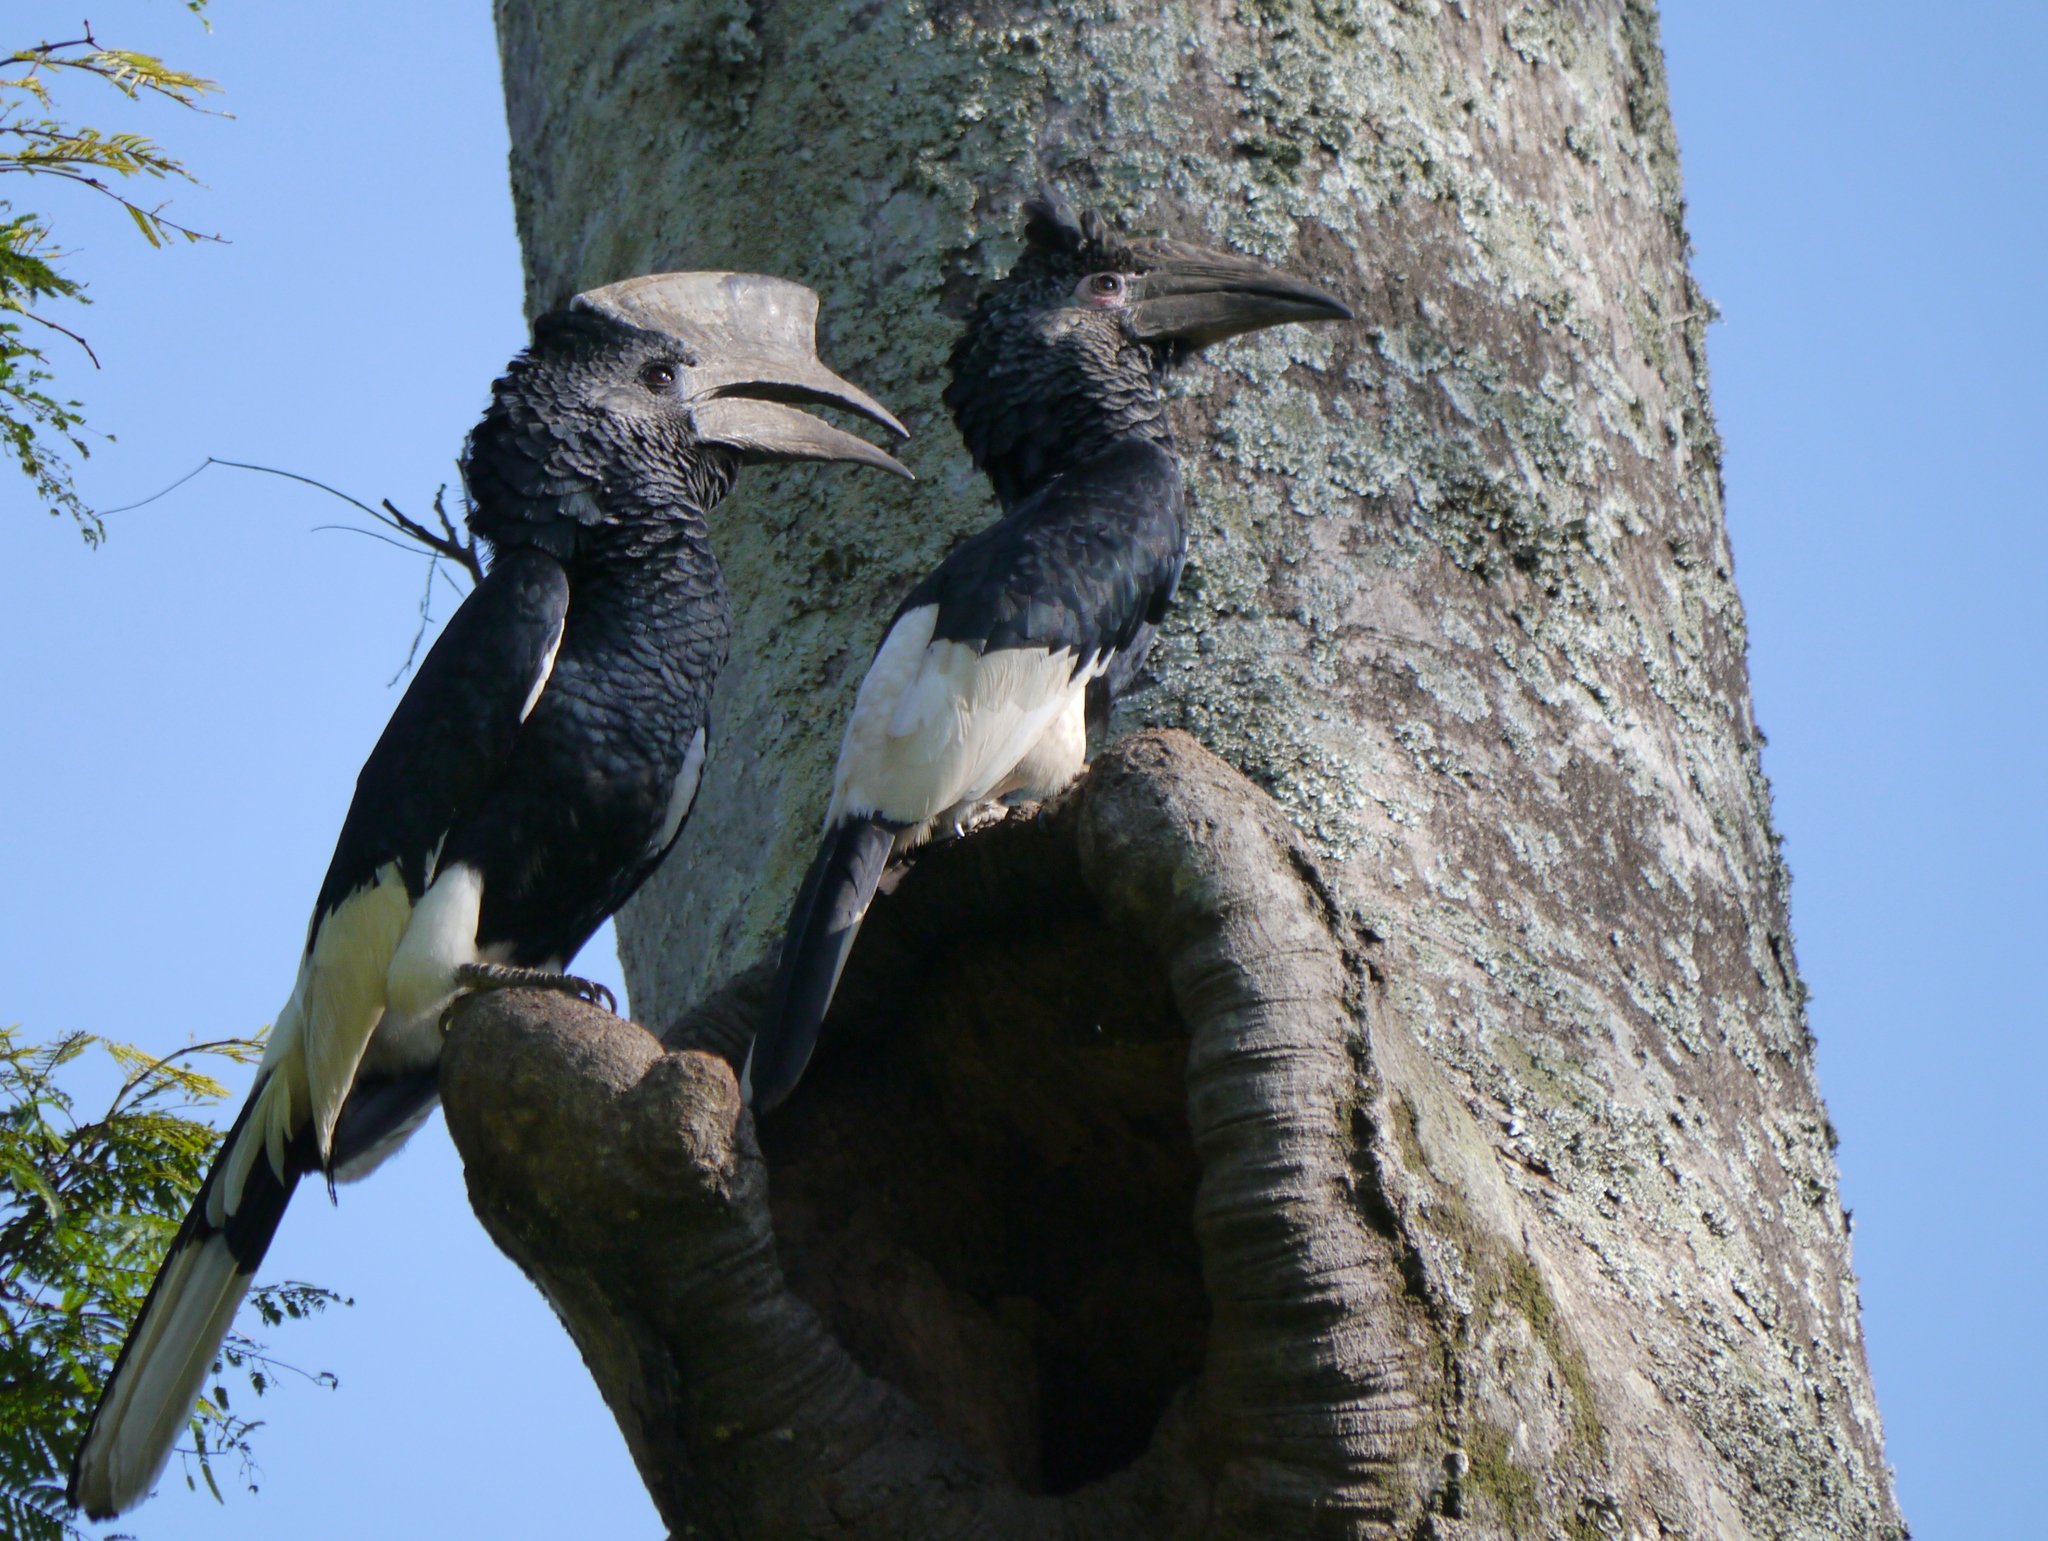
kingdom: Animalia
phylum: Chordata
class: Aves
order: Bucerotiformes
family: Bucerotidae
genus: Bycanistes
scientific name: Bycanistes subcylindricus
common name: Black-and-white-casqued hornbill
